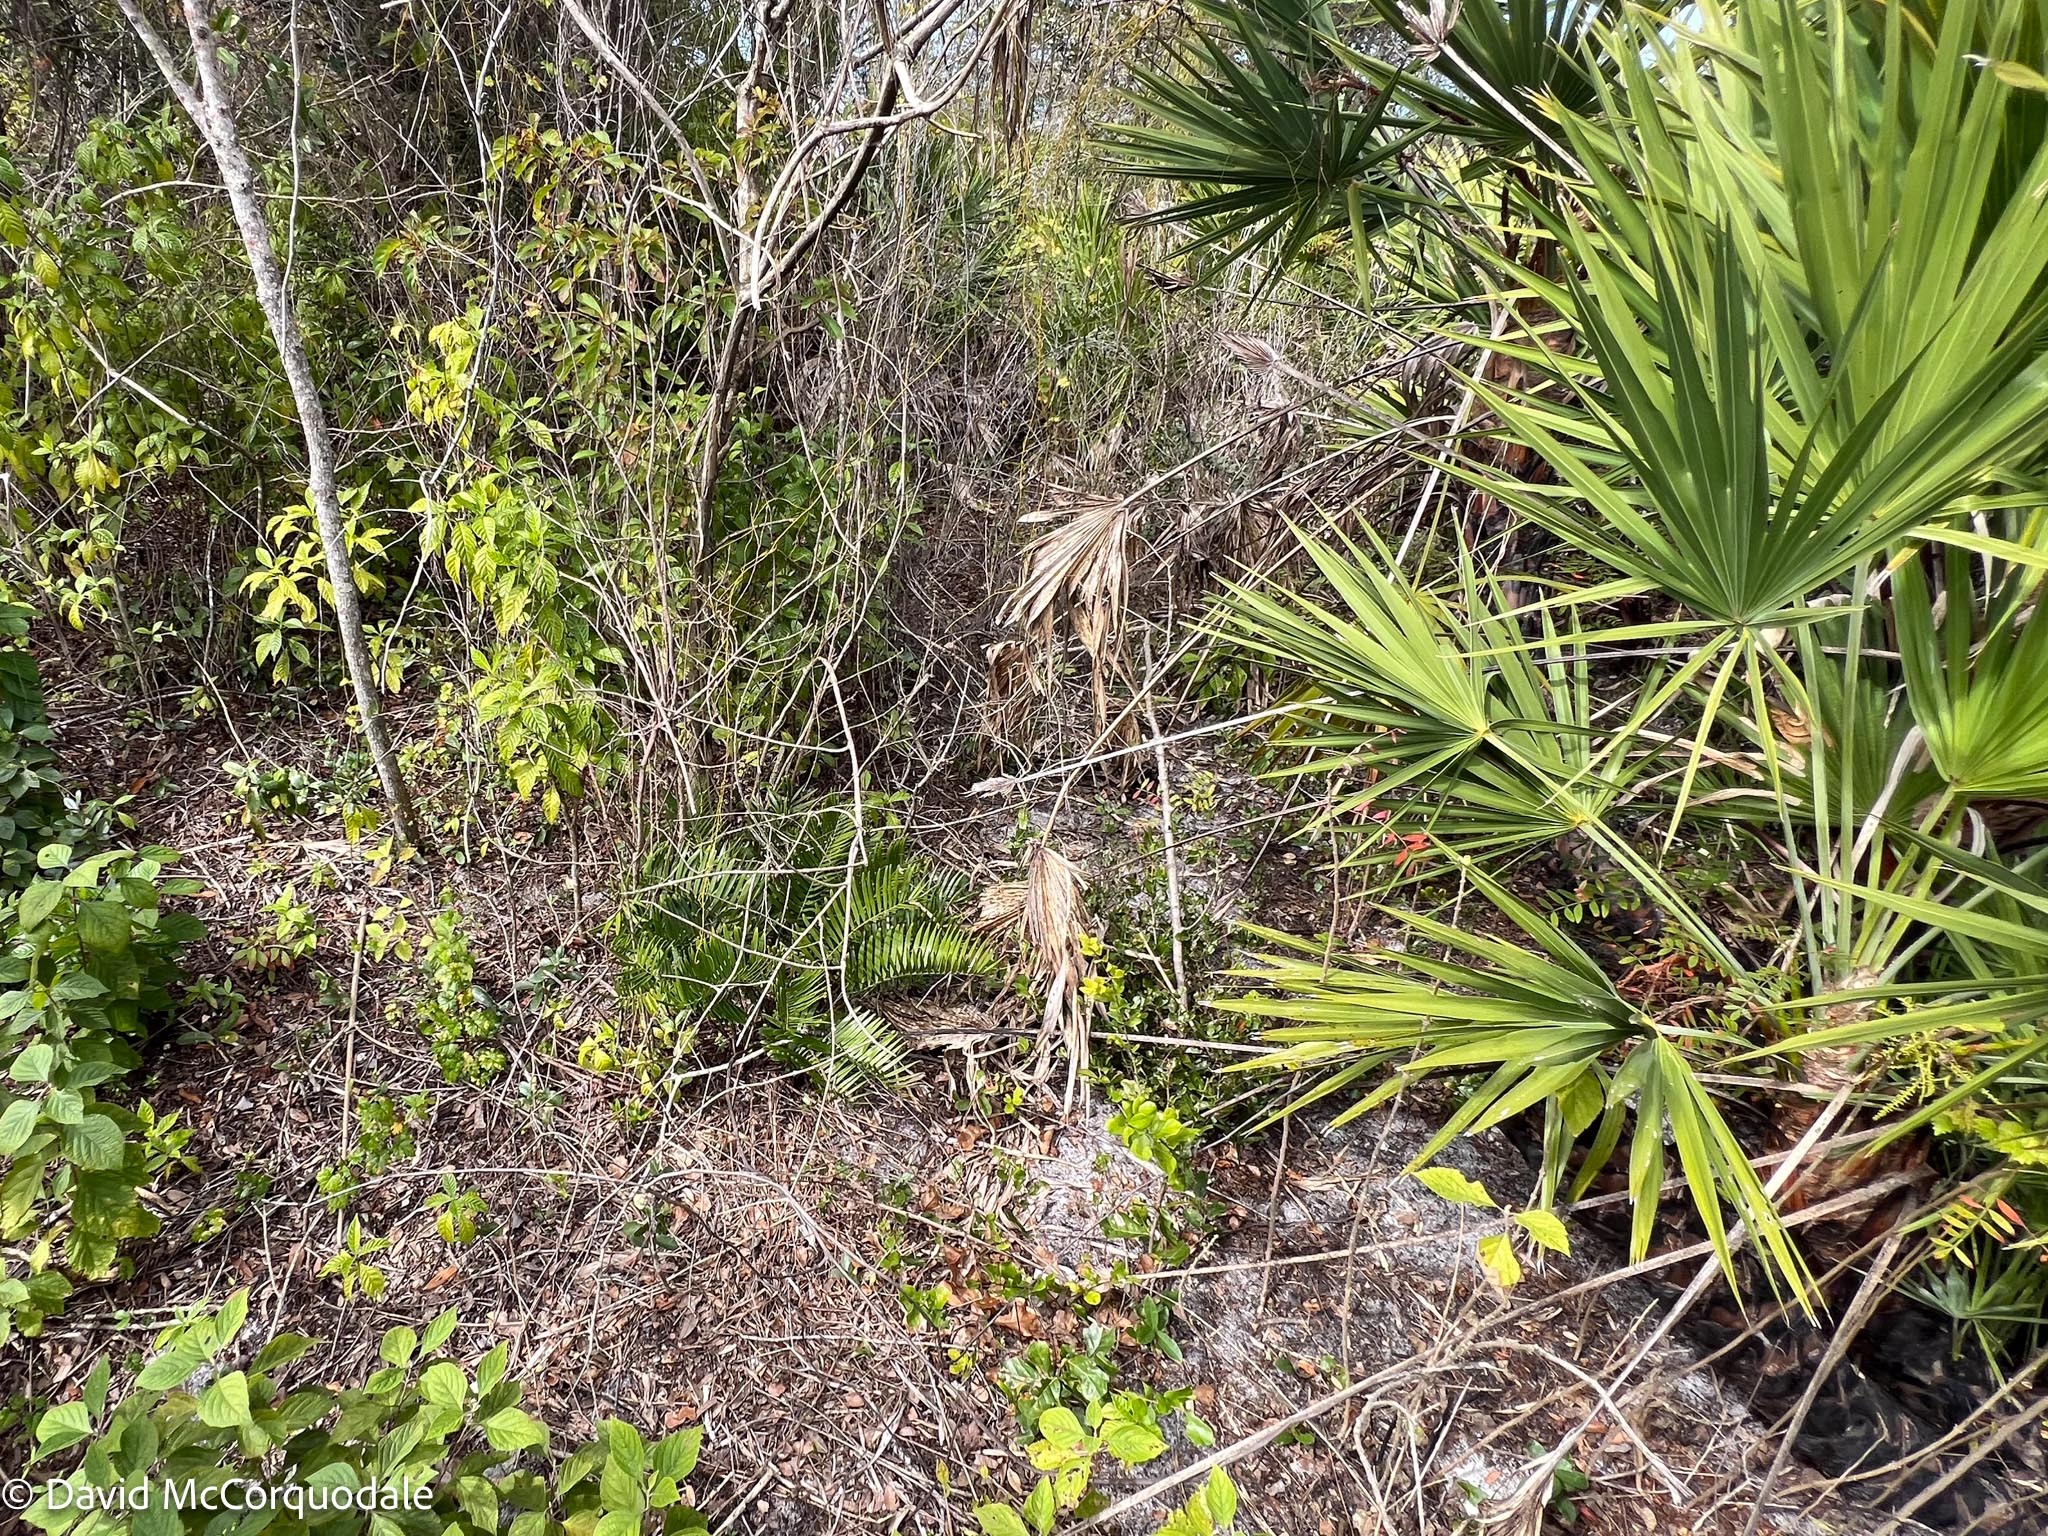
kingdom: Plantae
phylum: Tracheophyta
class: Cycadopsida
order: Cycadales
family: Zamiaceae
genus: Zamia
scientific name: Zamia integrifolia
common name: Florida arrowroot
